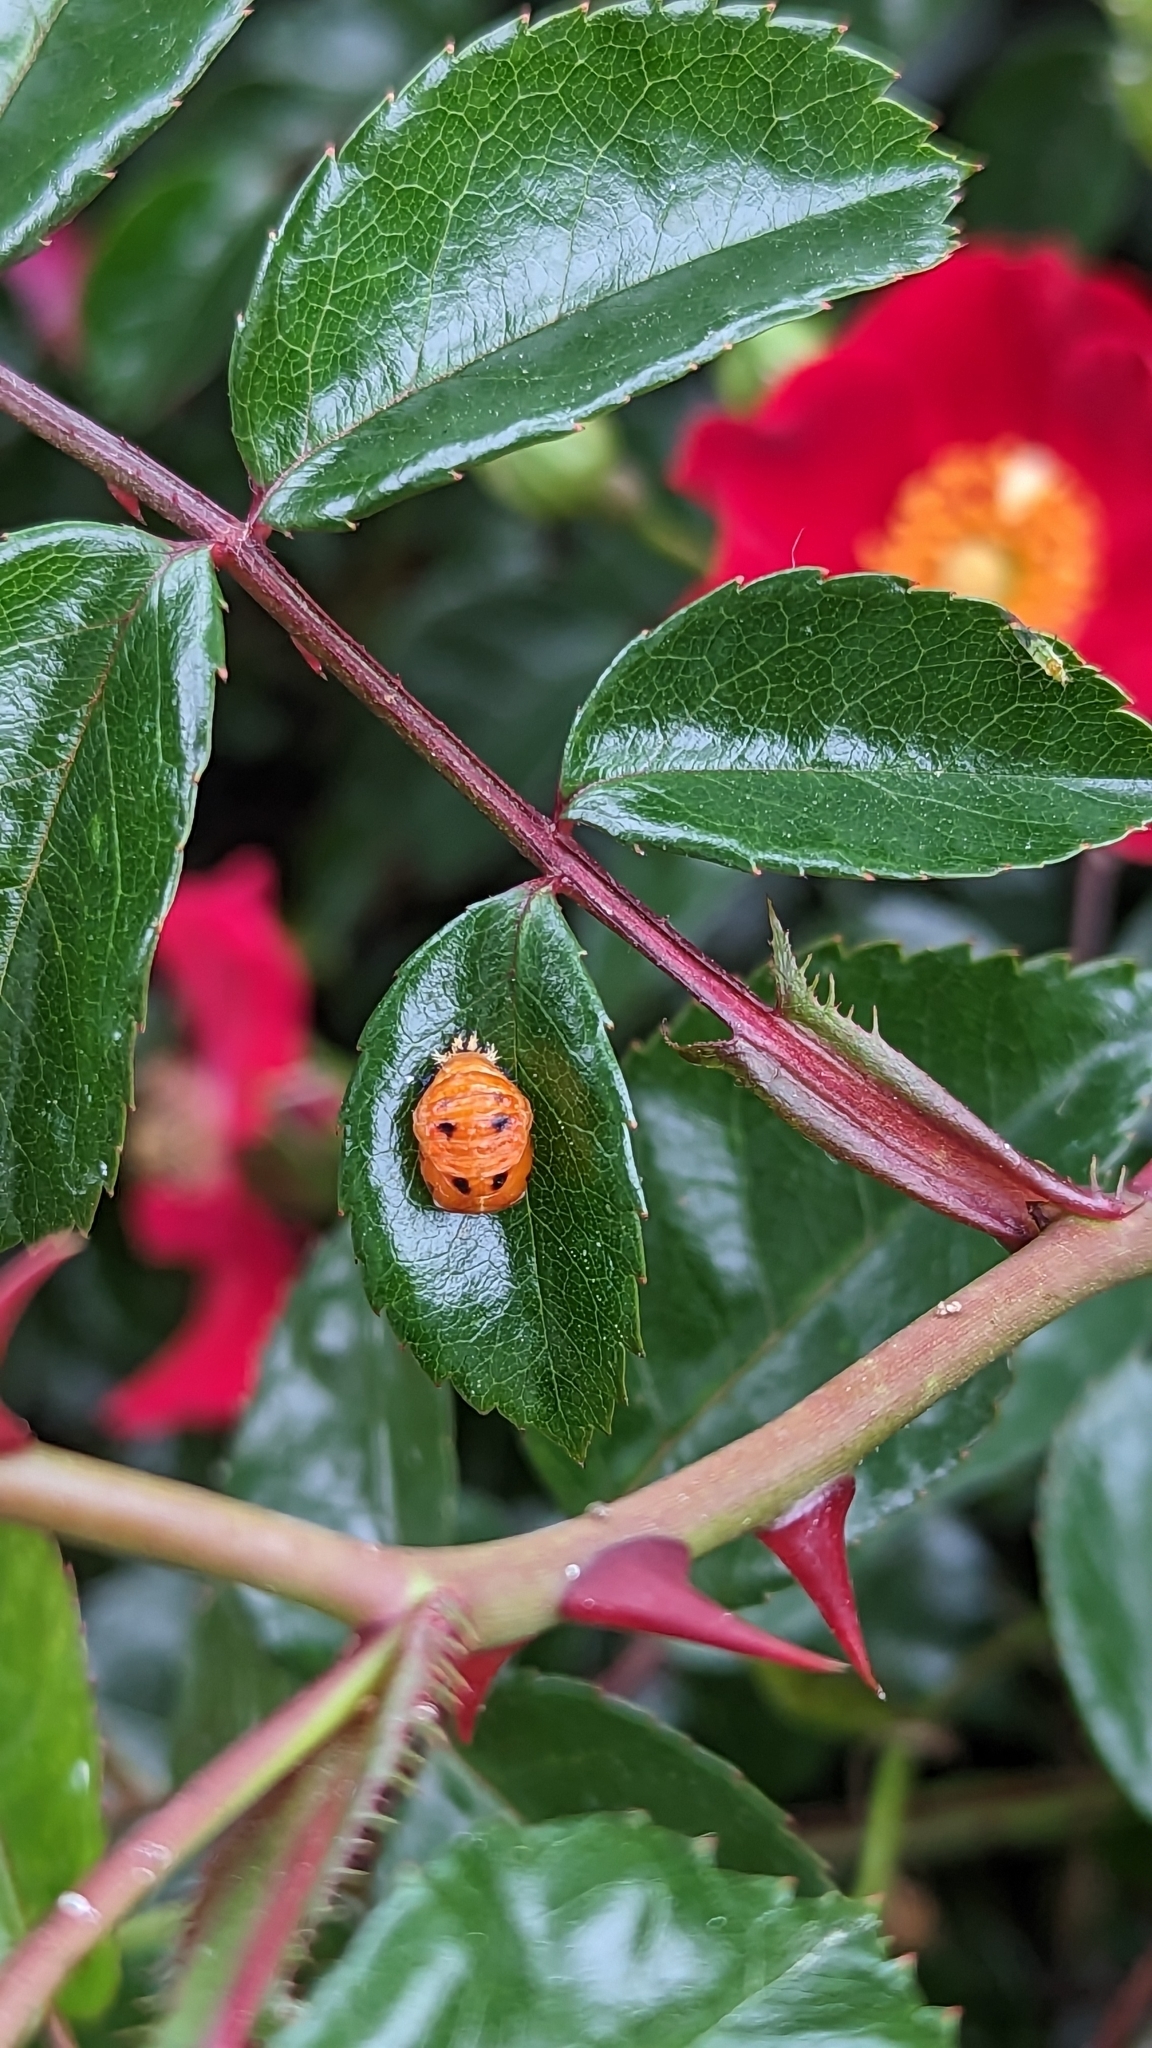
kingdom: Animalia
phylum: Arthropoda
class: Insecta
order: Coleoptera
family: Coccinellidae
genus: Harmonia
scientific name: Harmonia axyridis
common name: Harlequin ladybird
